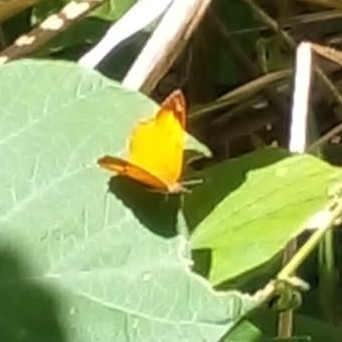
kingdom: Animalia
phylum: Arthropoda
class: Insecta
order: Lepidoptera
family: Nymphalidae
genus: Nica
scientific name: Nica flavilla
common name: Mandarin nica
